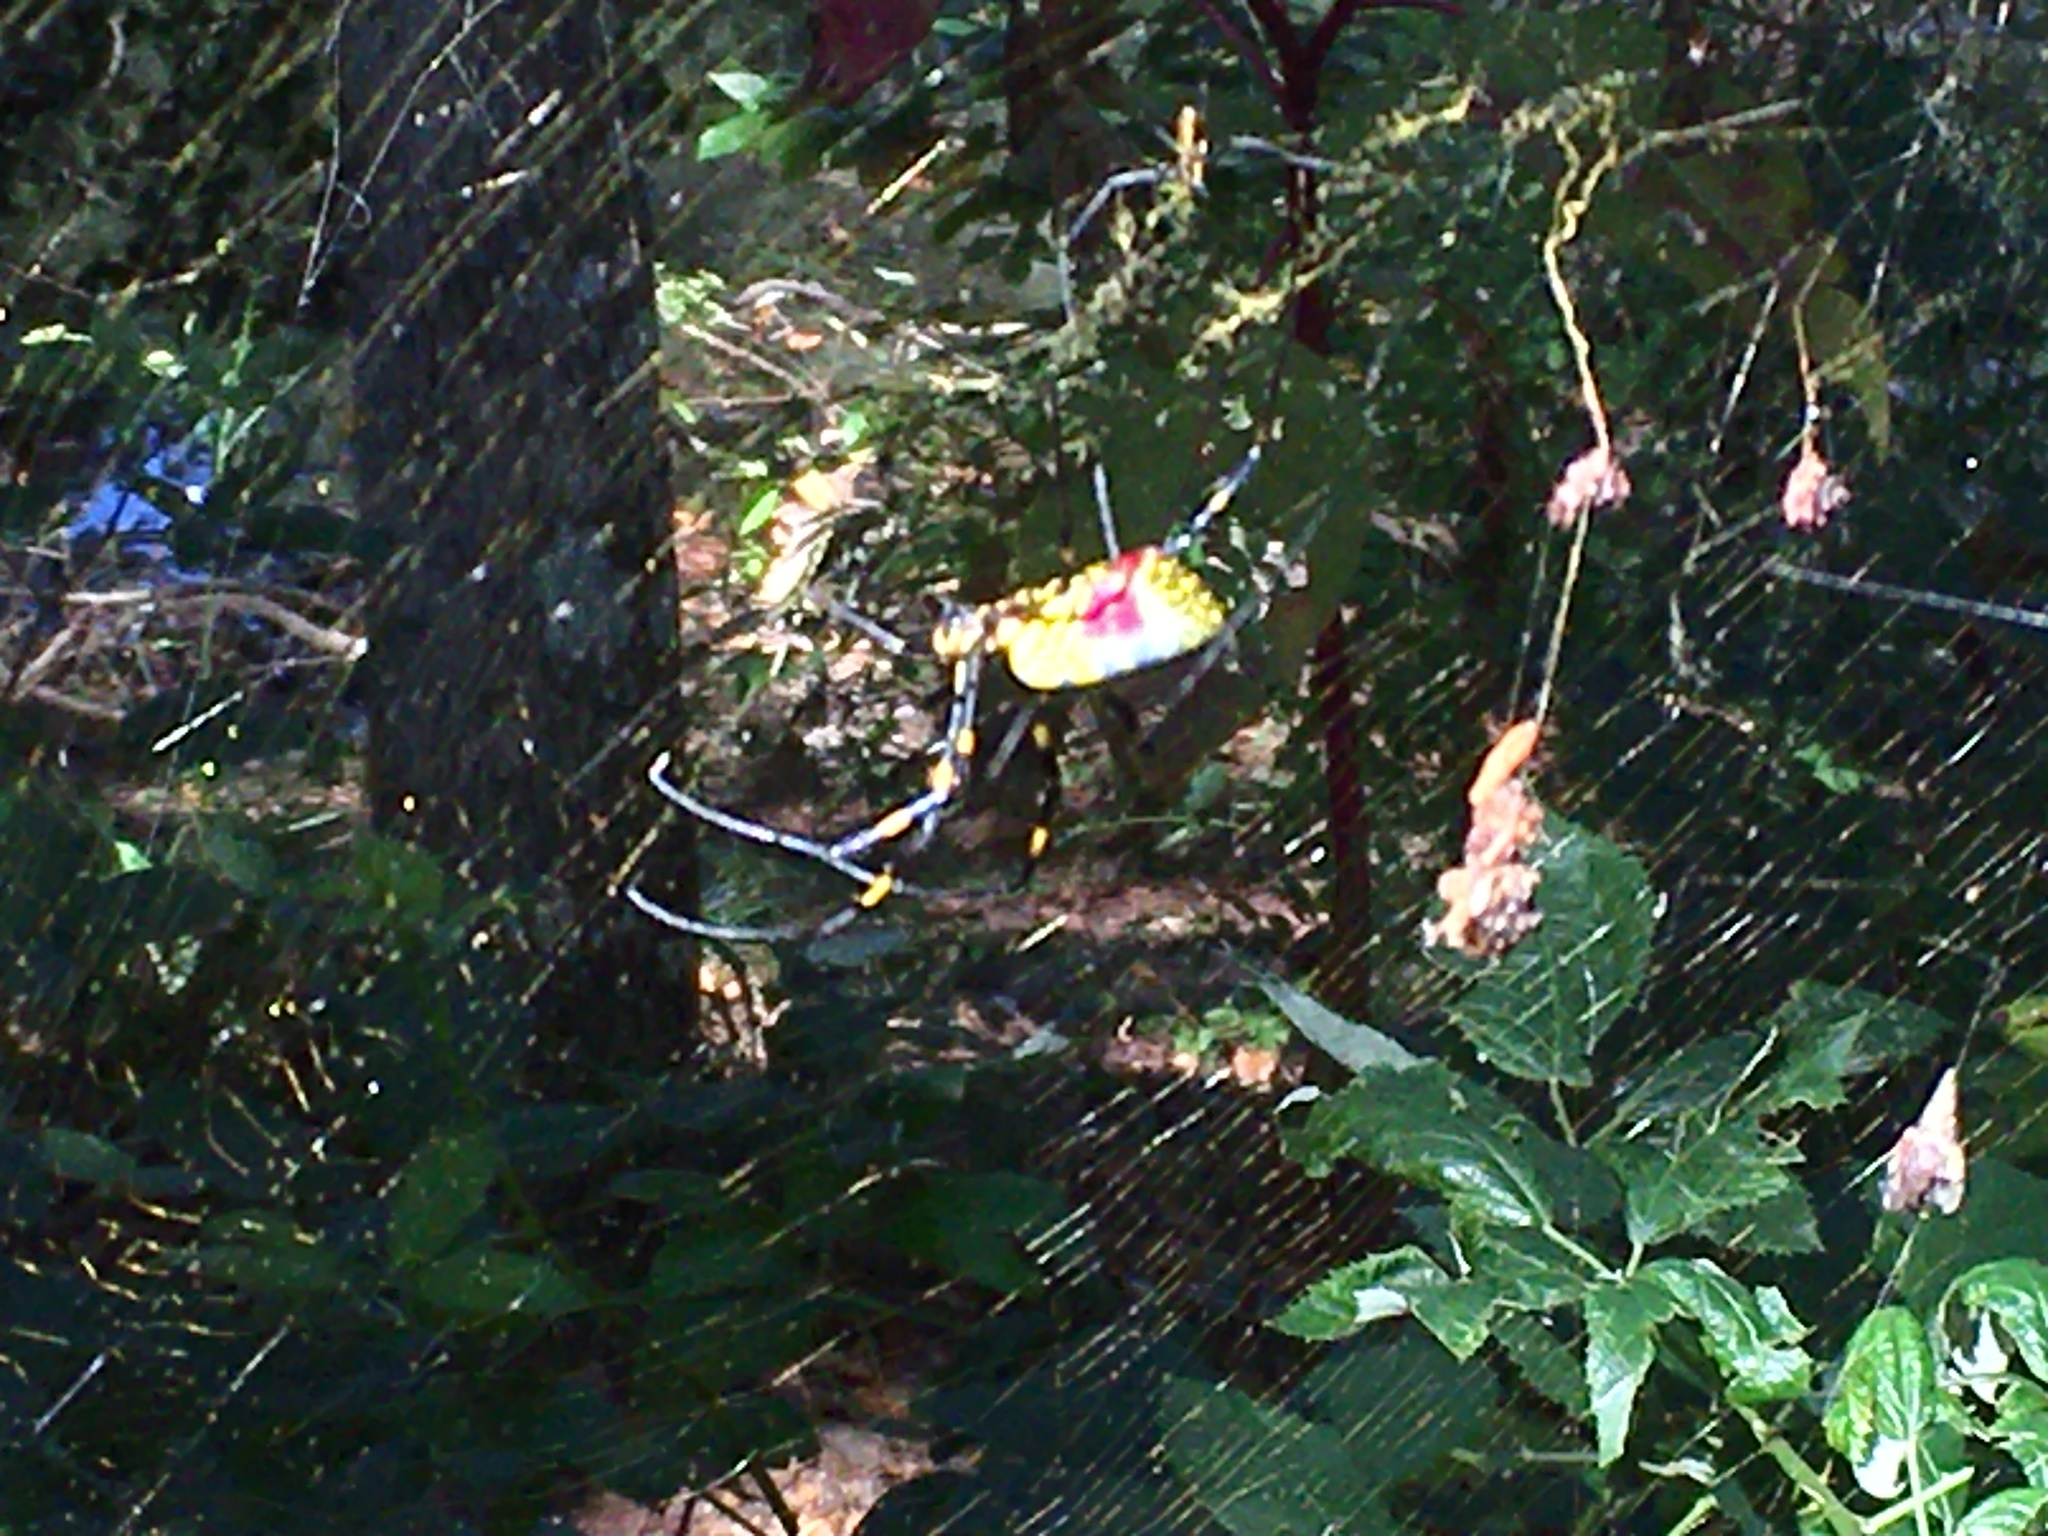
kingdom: Animalia
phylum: Arthropoda
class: Arachnida
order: Araneae
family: Araneidae
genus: Trichonephila
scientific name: Trichonephila clavata
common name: Jorō spider
